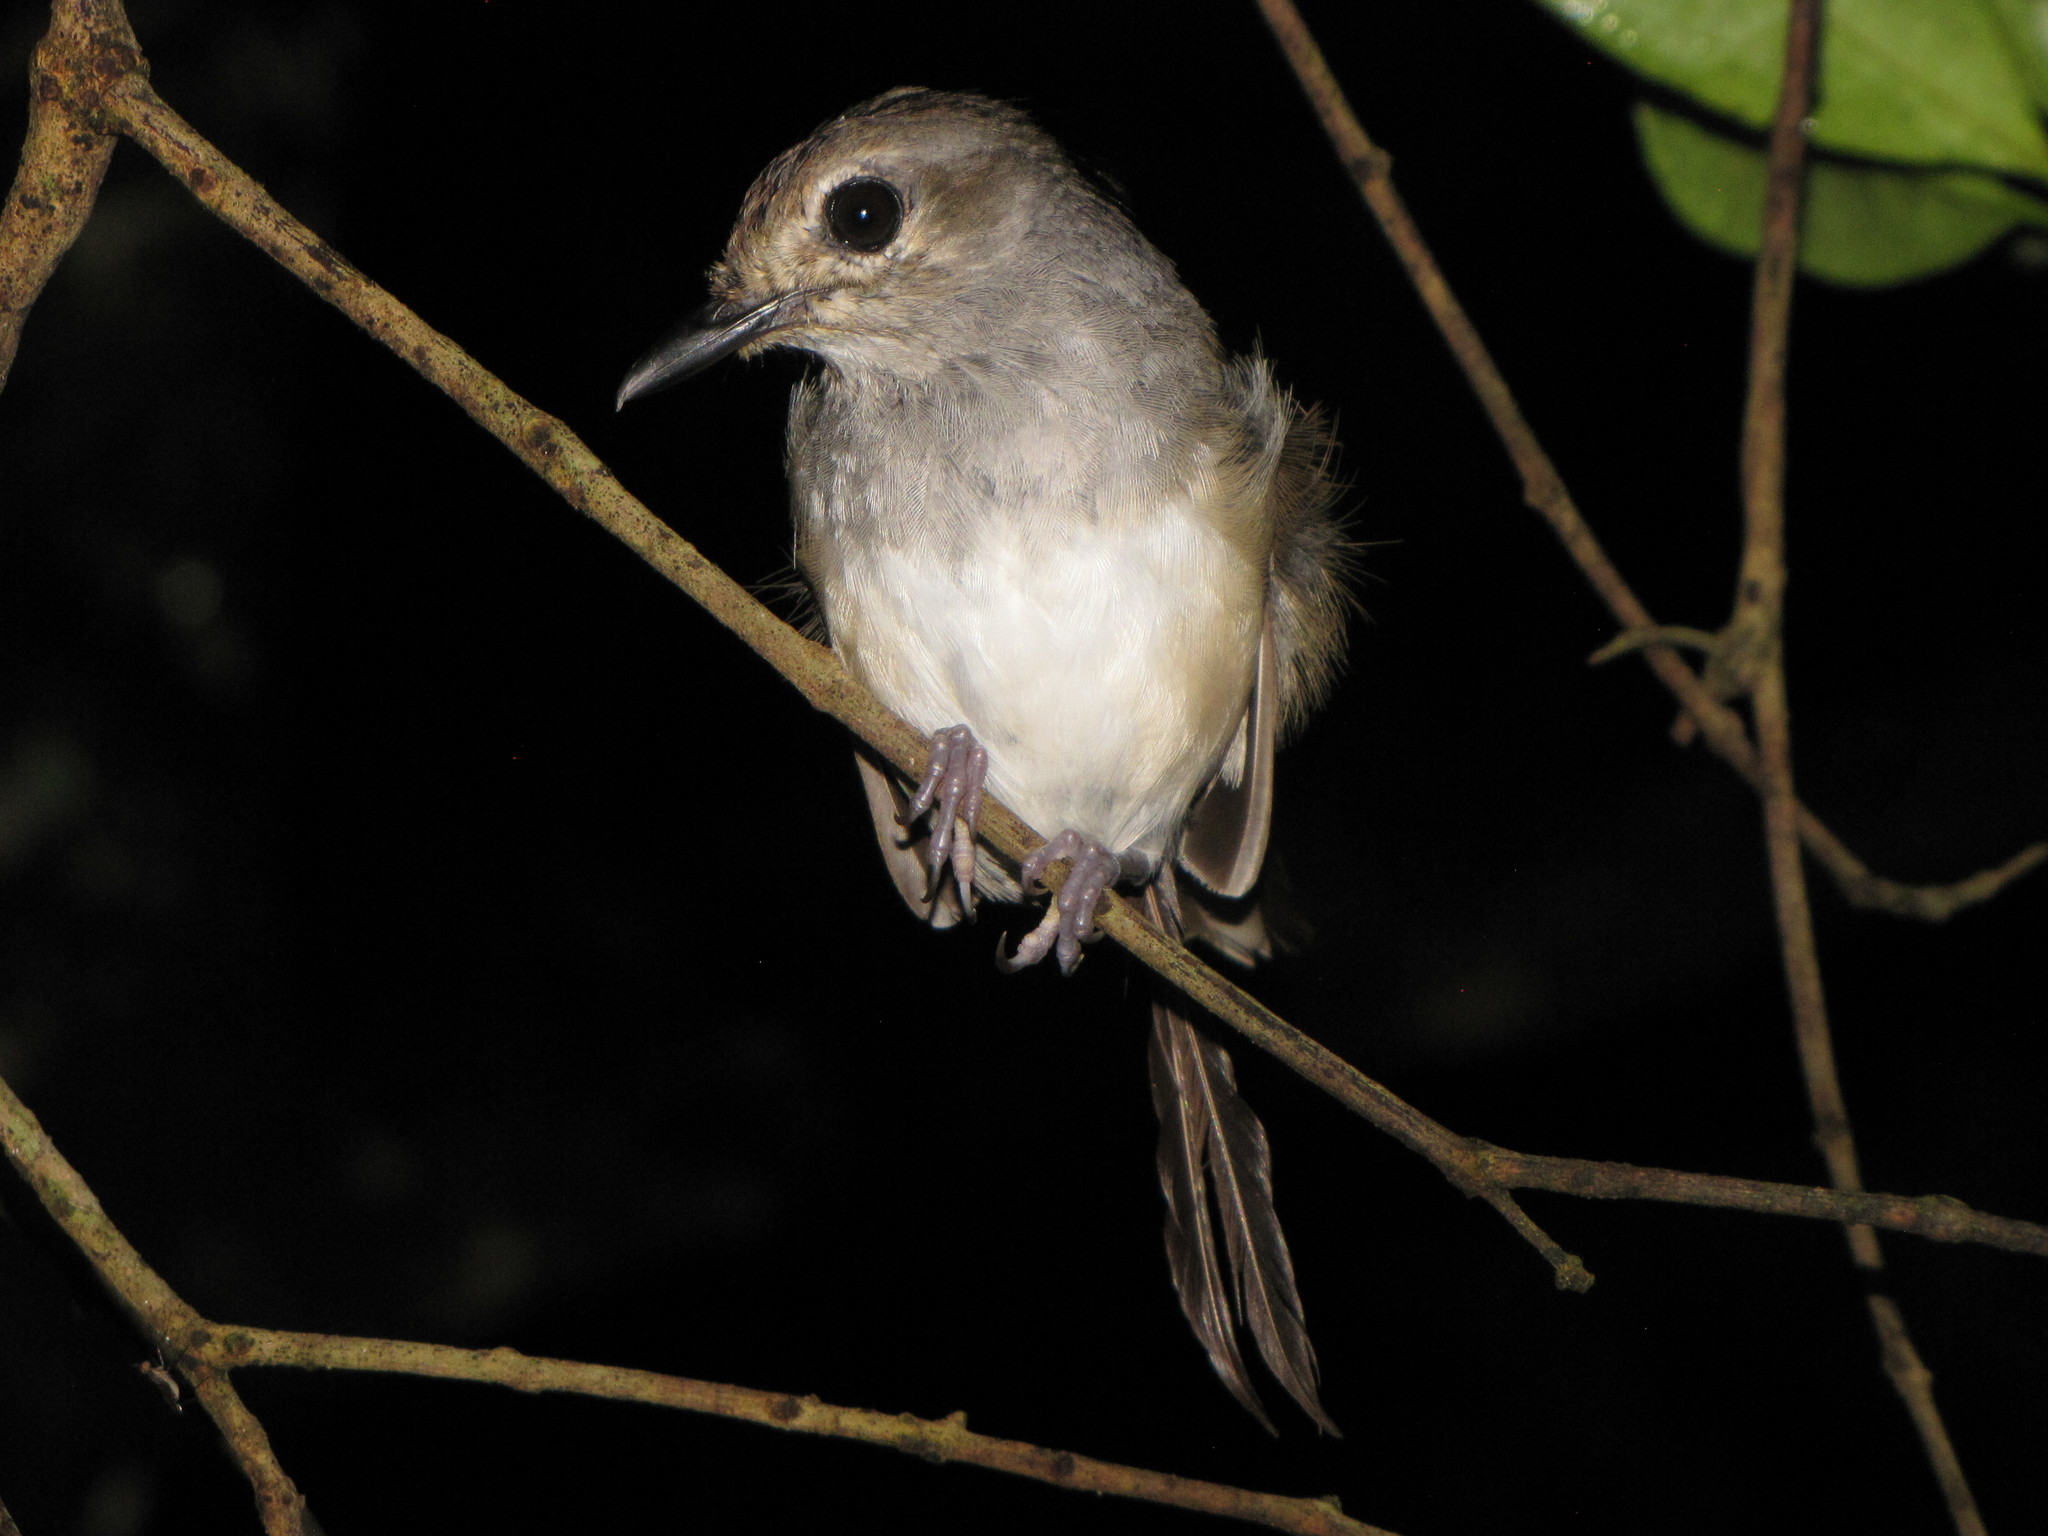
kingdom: Animalia
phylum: Chordata
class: Aves
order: Passeriformes
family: Muscicapidae
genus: Copsychus
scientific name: Copsychus albospecularis
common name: Madagascar magpie-robin
